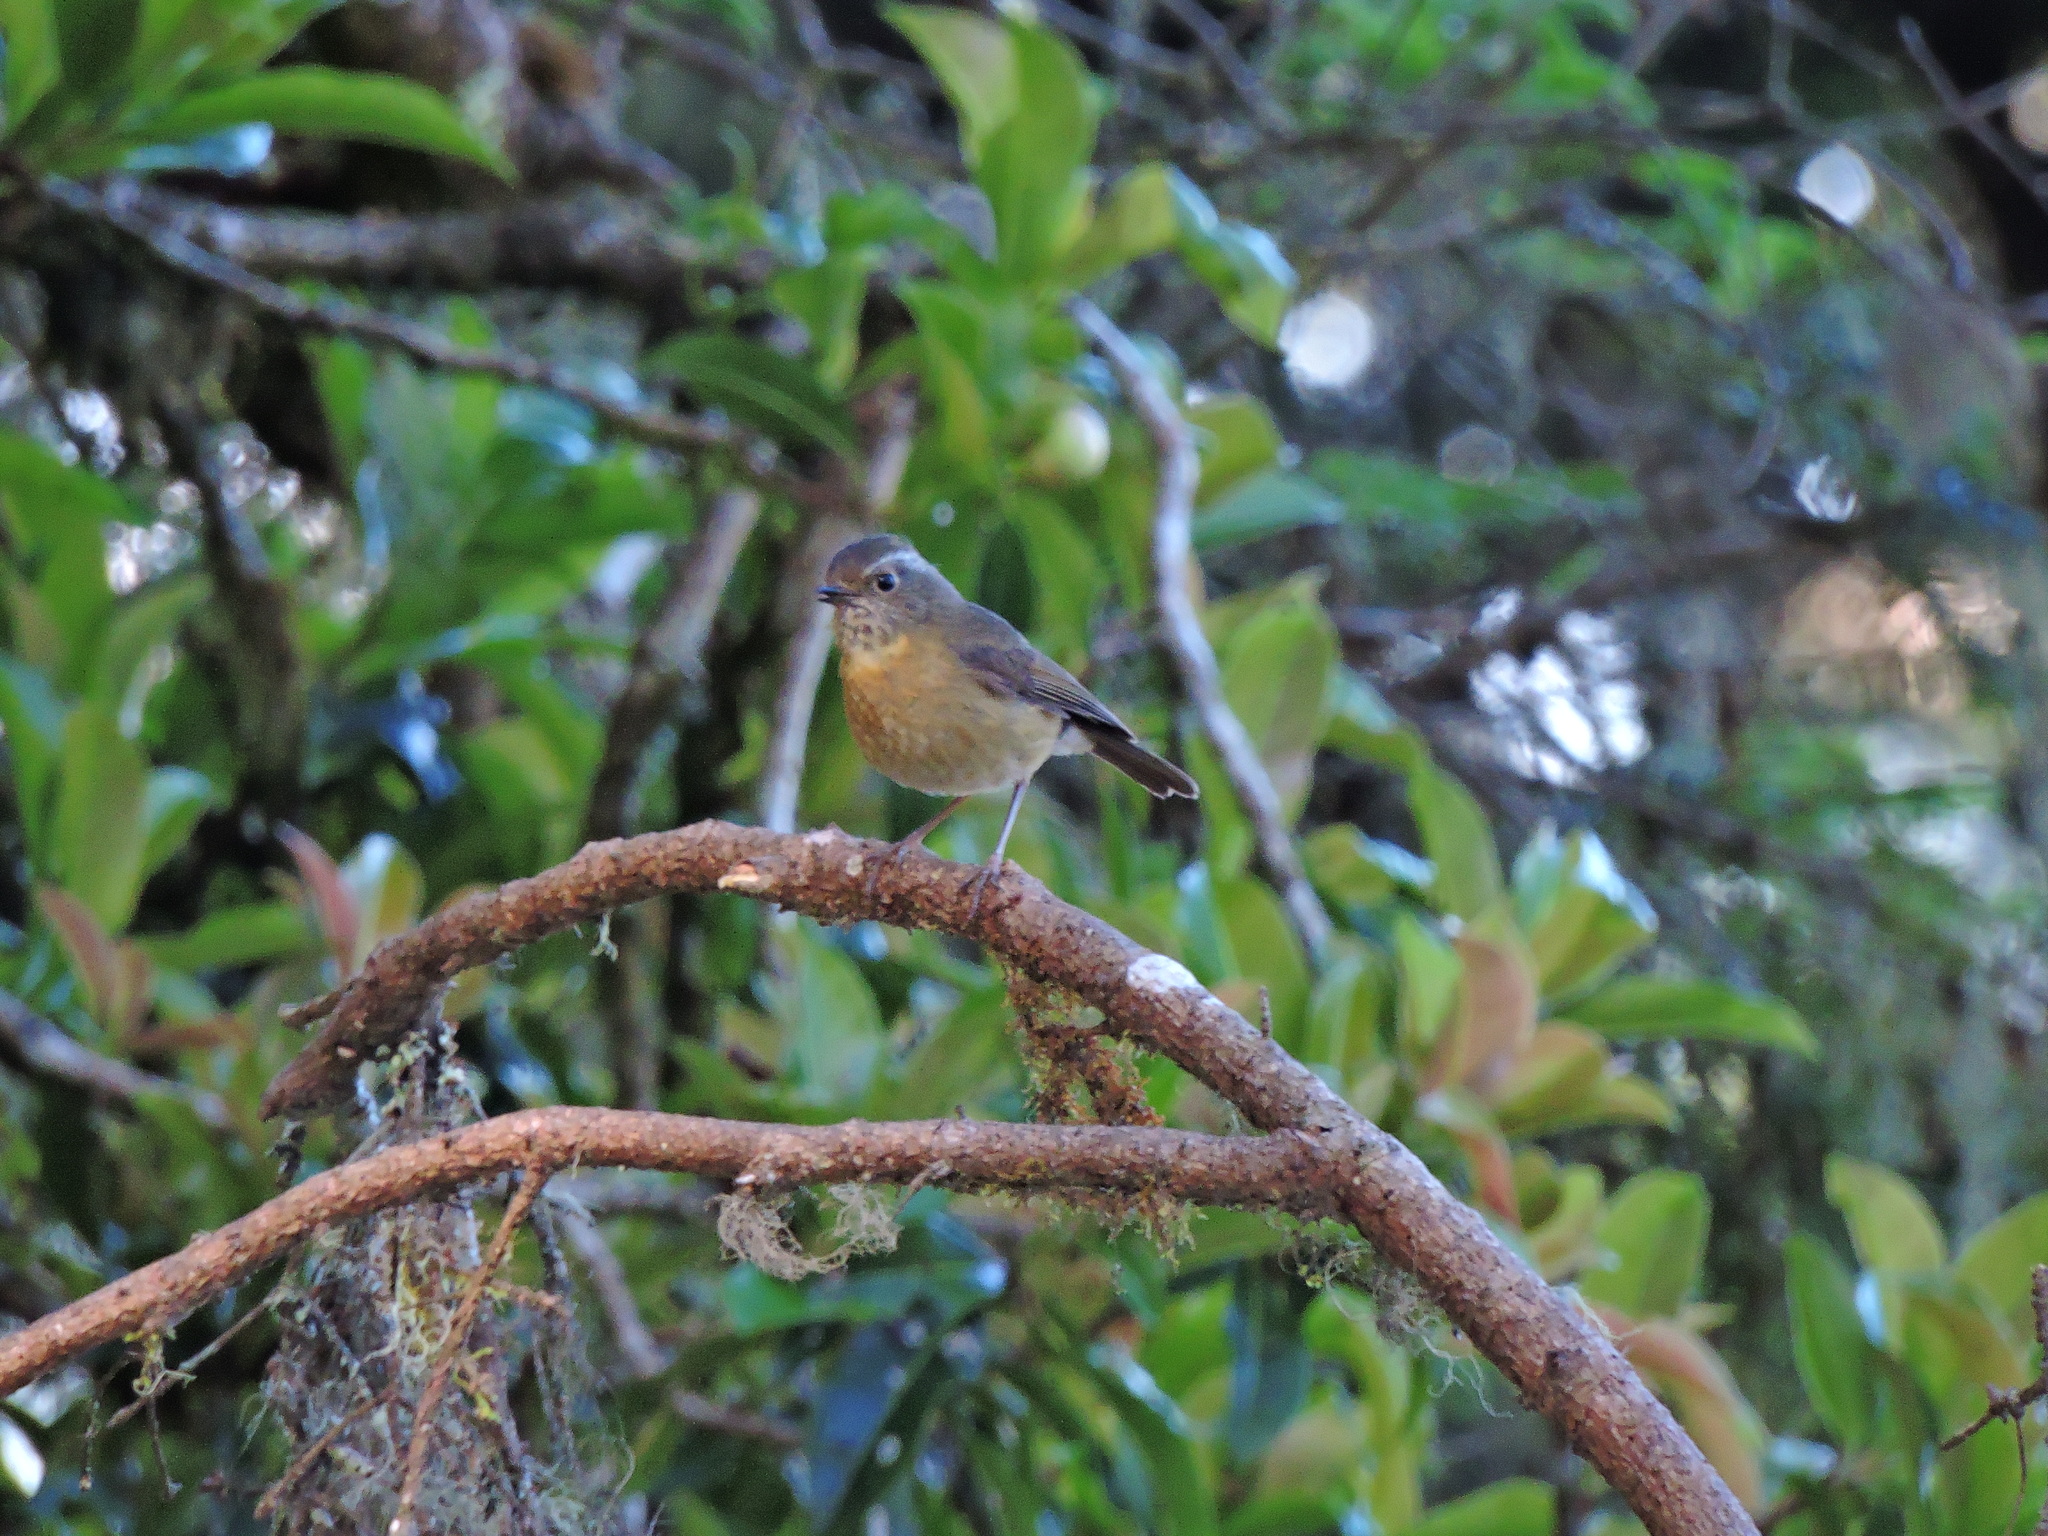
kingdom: Animalia
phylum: Chordata
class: Aves
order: Passeriformes
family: Muscicapidae
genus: Tarsiger
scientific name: Tarsiger johnstoniae
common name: Collared bush robin
